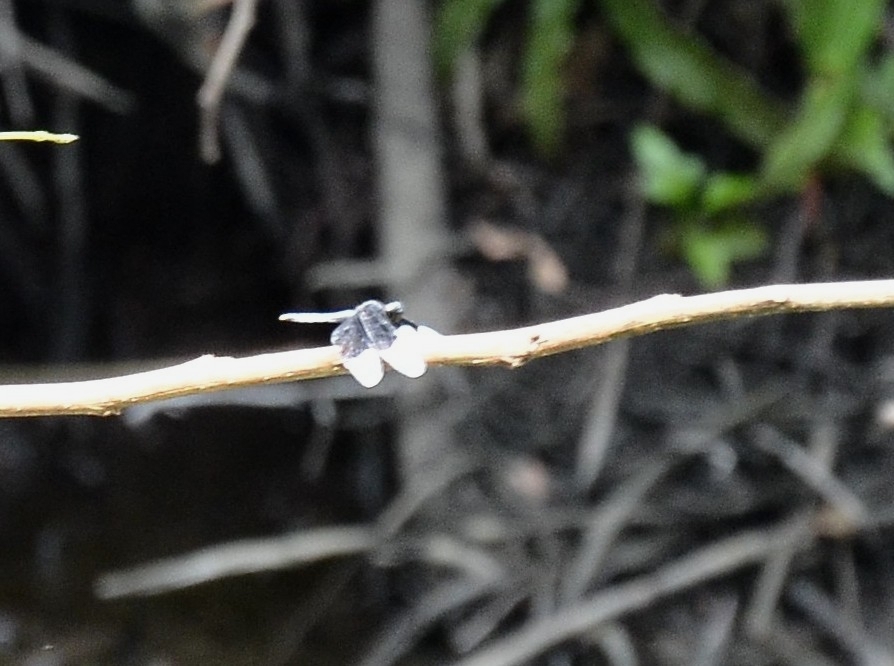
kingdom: Animalia
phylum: Arthropoda
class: Insecta
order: Odonata
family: Libellulidae
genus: Neurothemis
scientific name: Neurothemis tullia
